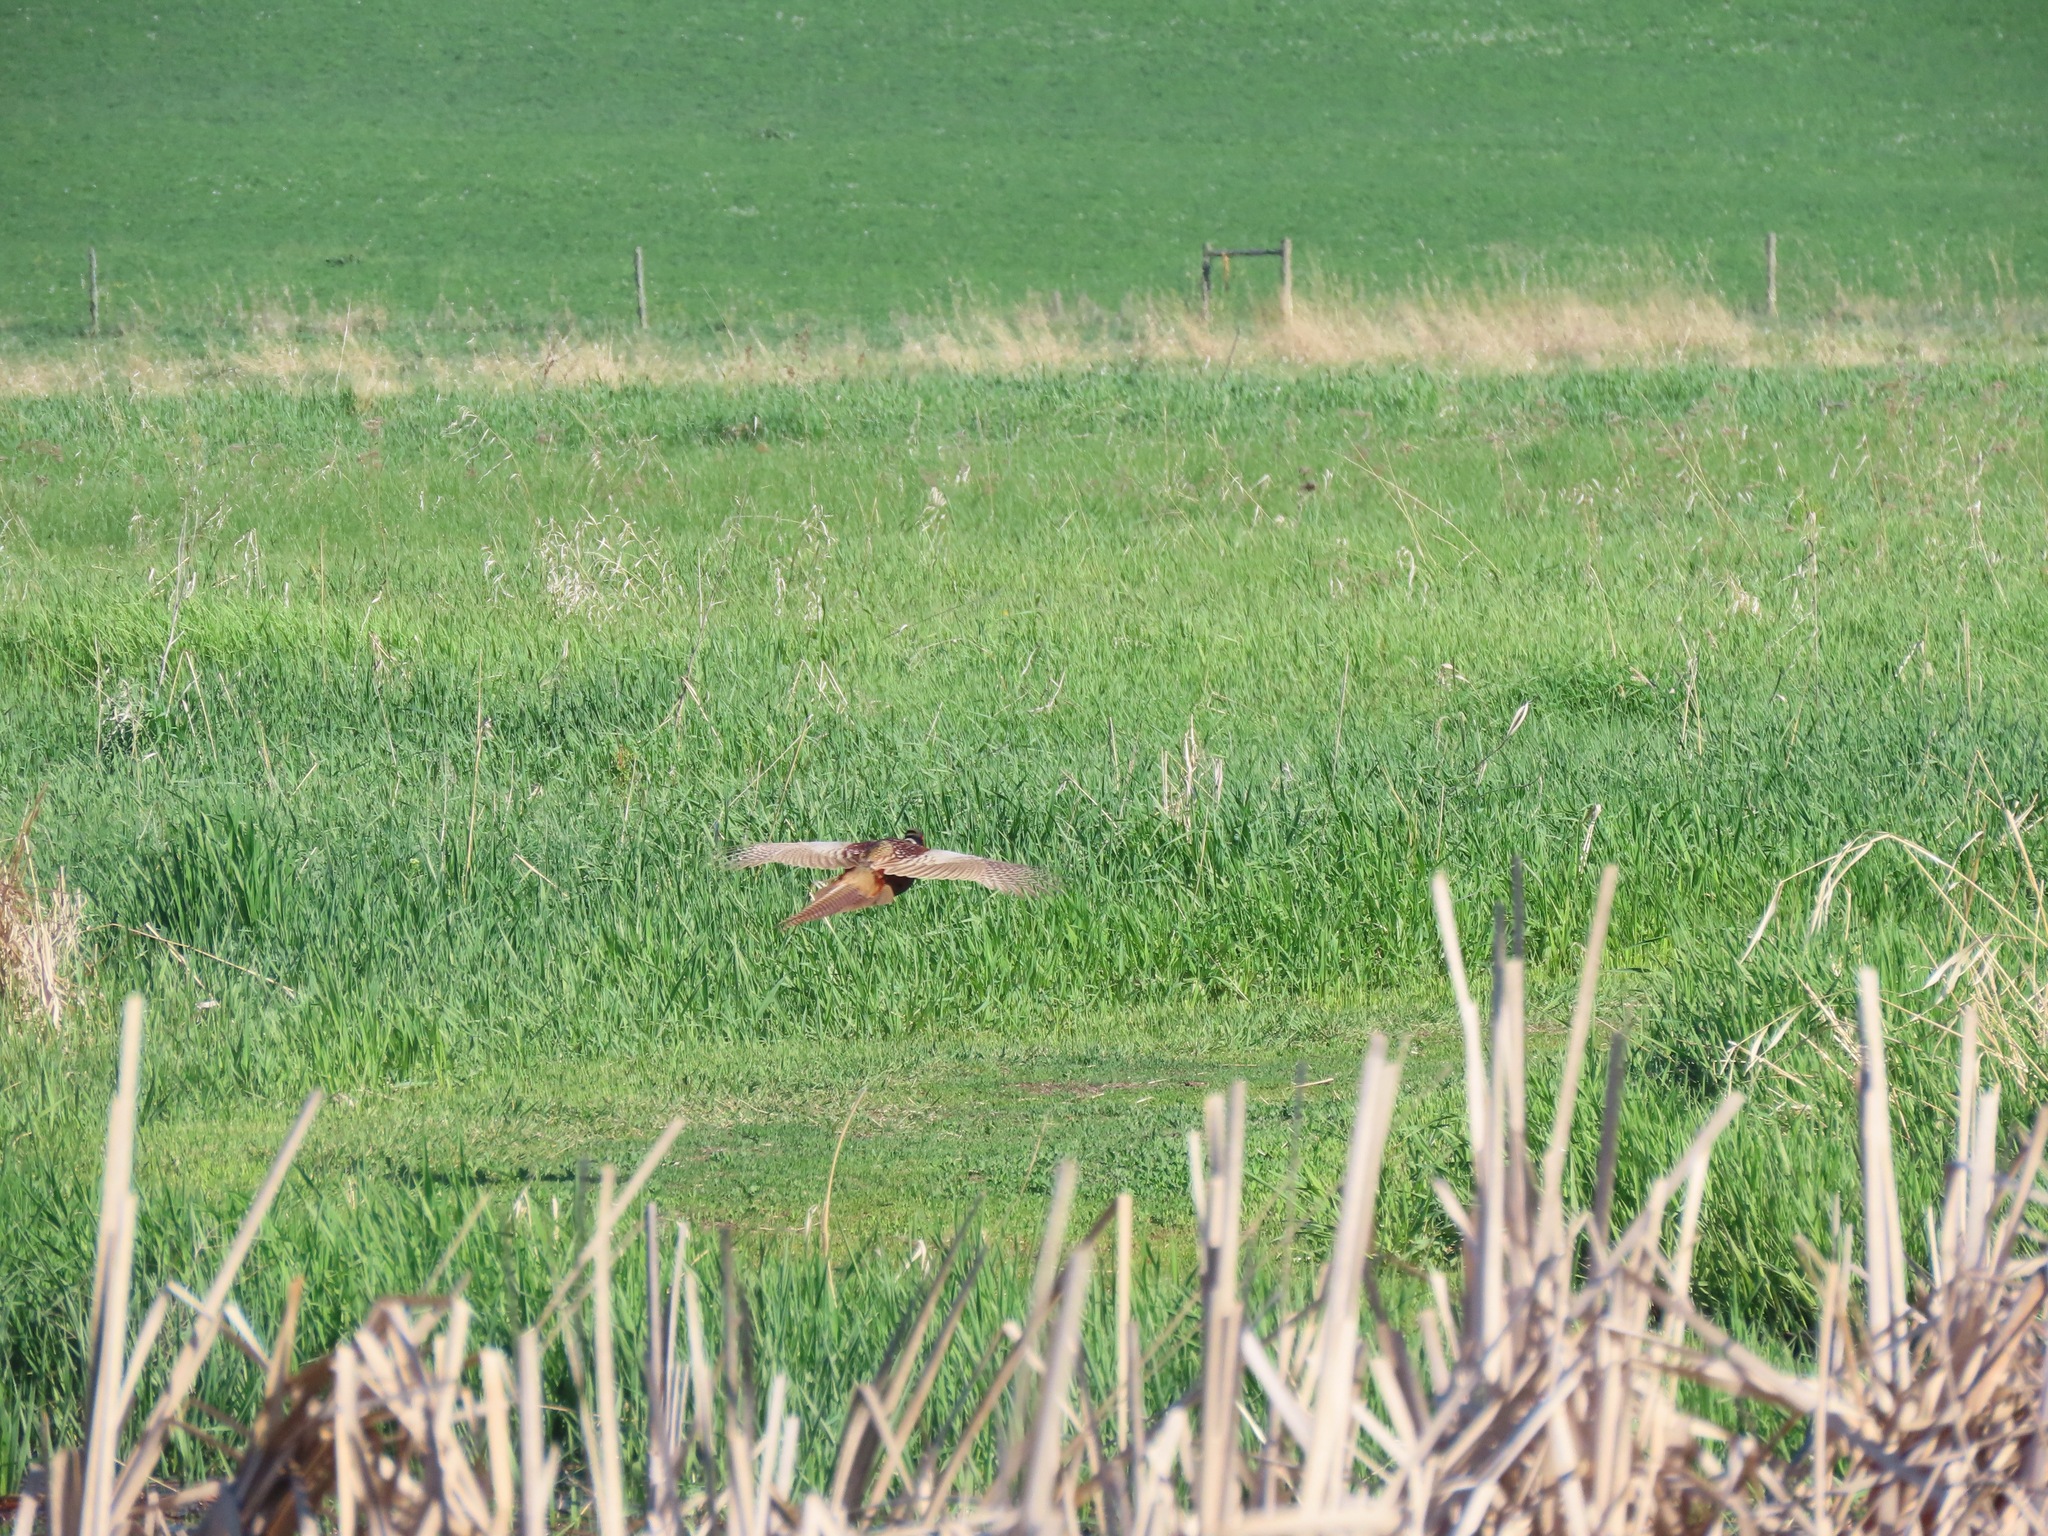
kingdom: Animalia
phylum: Chordata
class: Aves
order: Galliformes
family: Phasianidae
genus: Phasianus
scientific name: Phasianus colchicus
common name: Common pheasant
